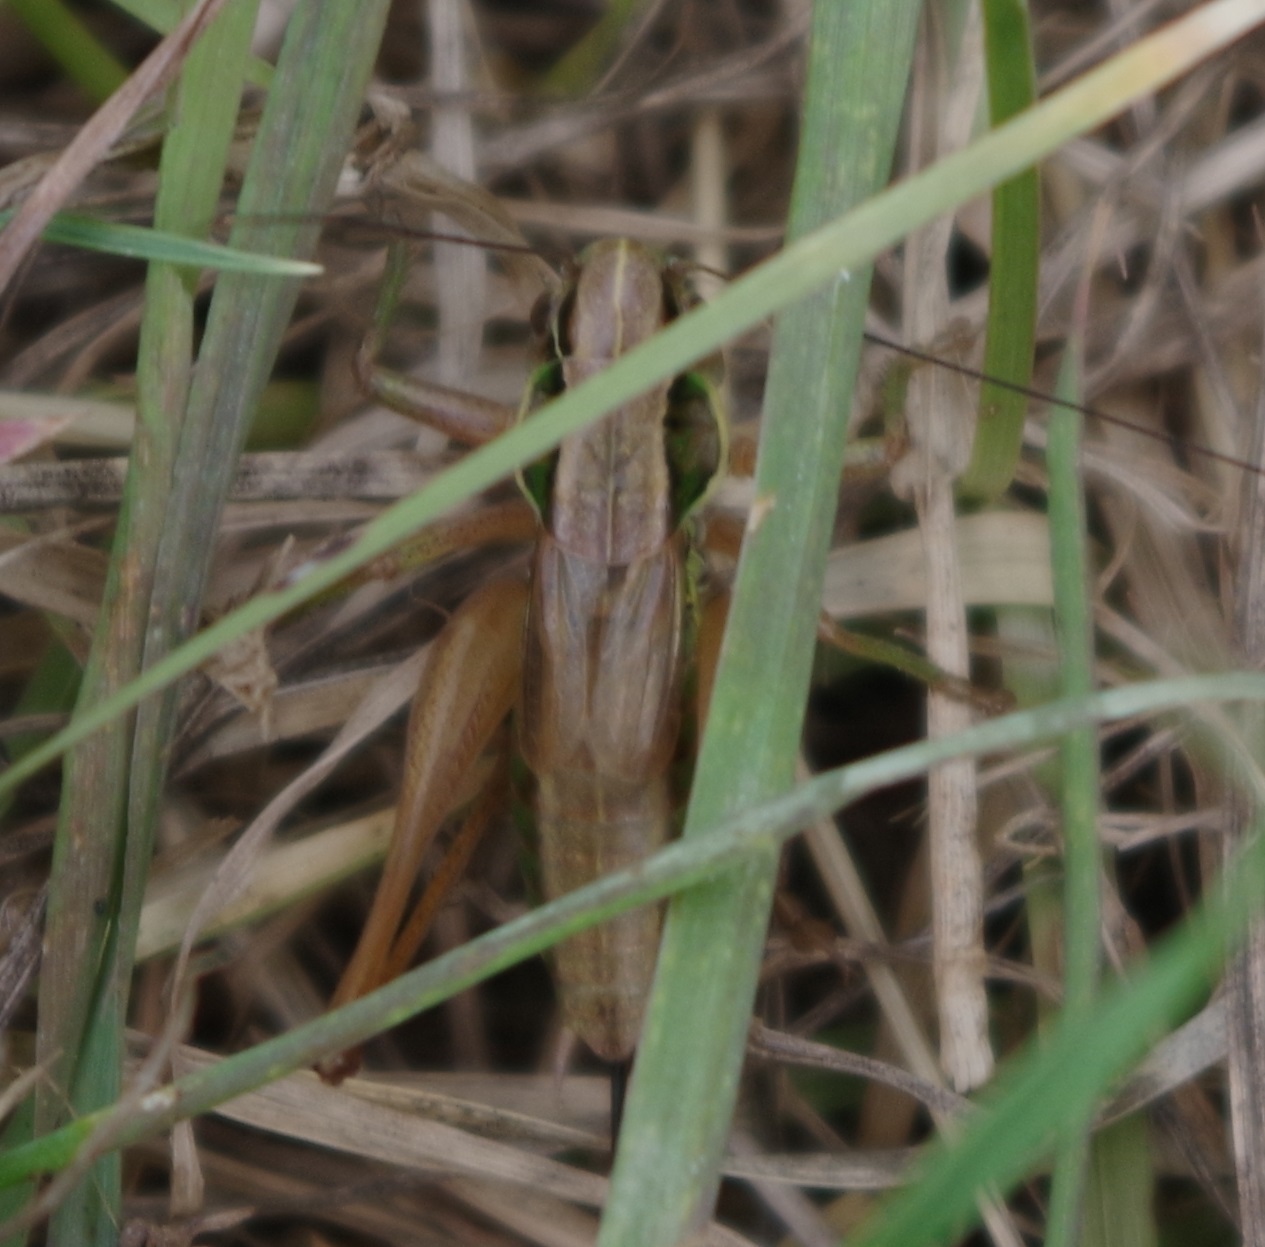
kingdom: Animalia
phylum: Arthropoda
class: Insecta
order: Orthoptera
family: Tettigoniidae
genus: Roeseliana
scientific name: Roeseliana roeselii
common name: Roesel's bush cricket
